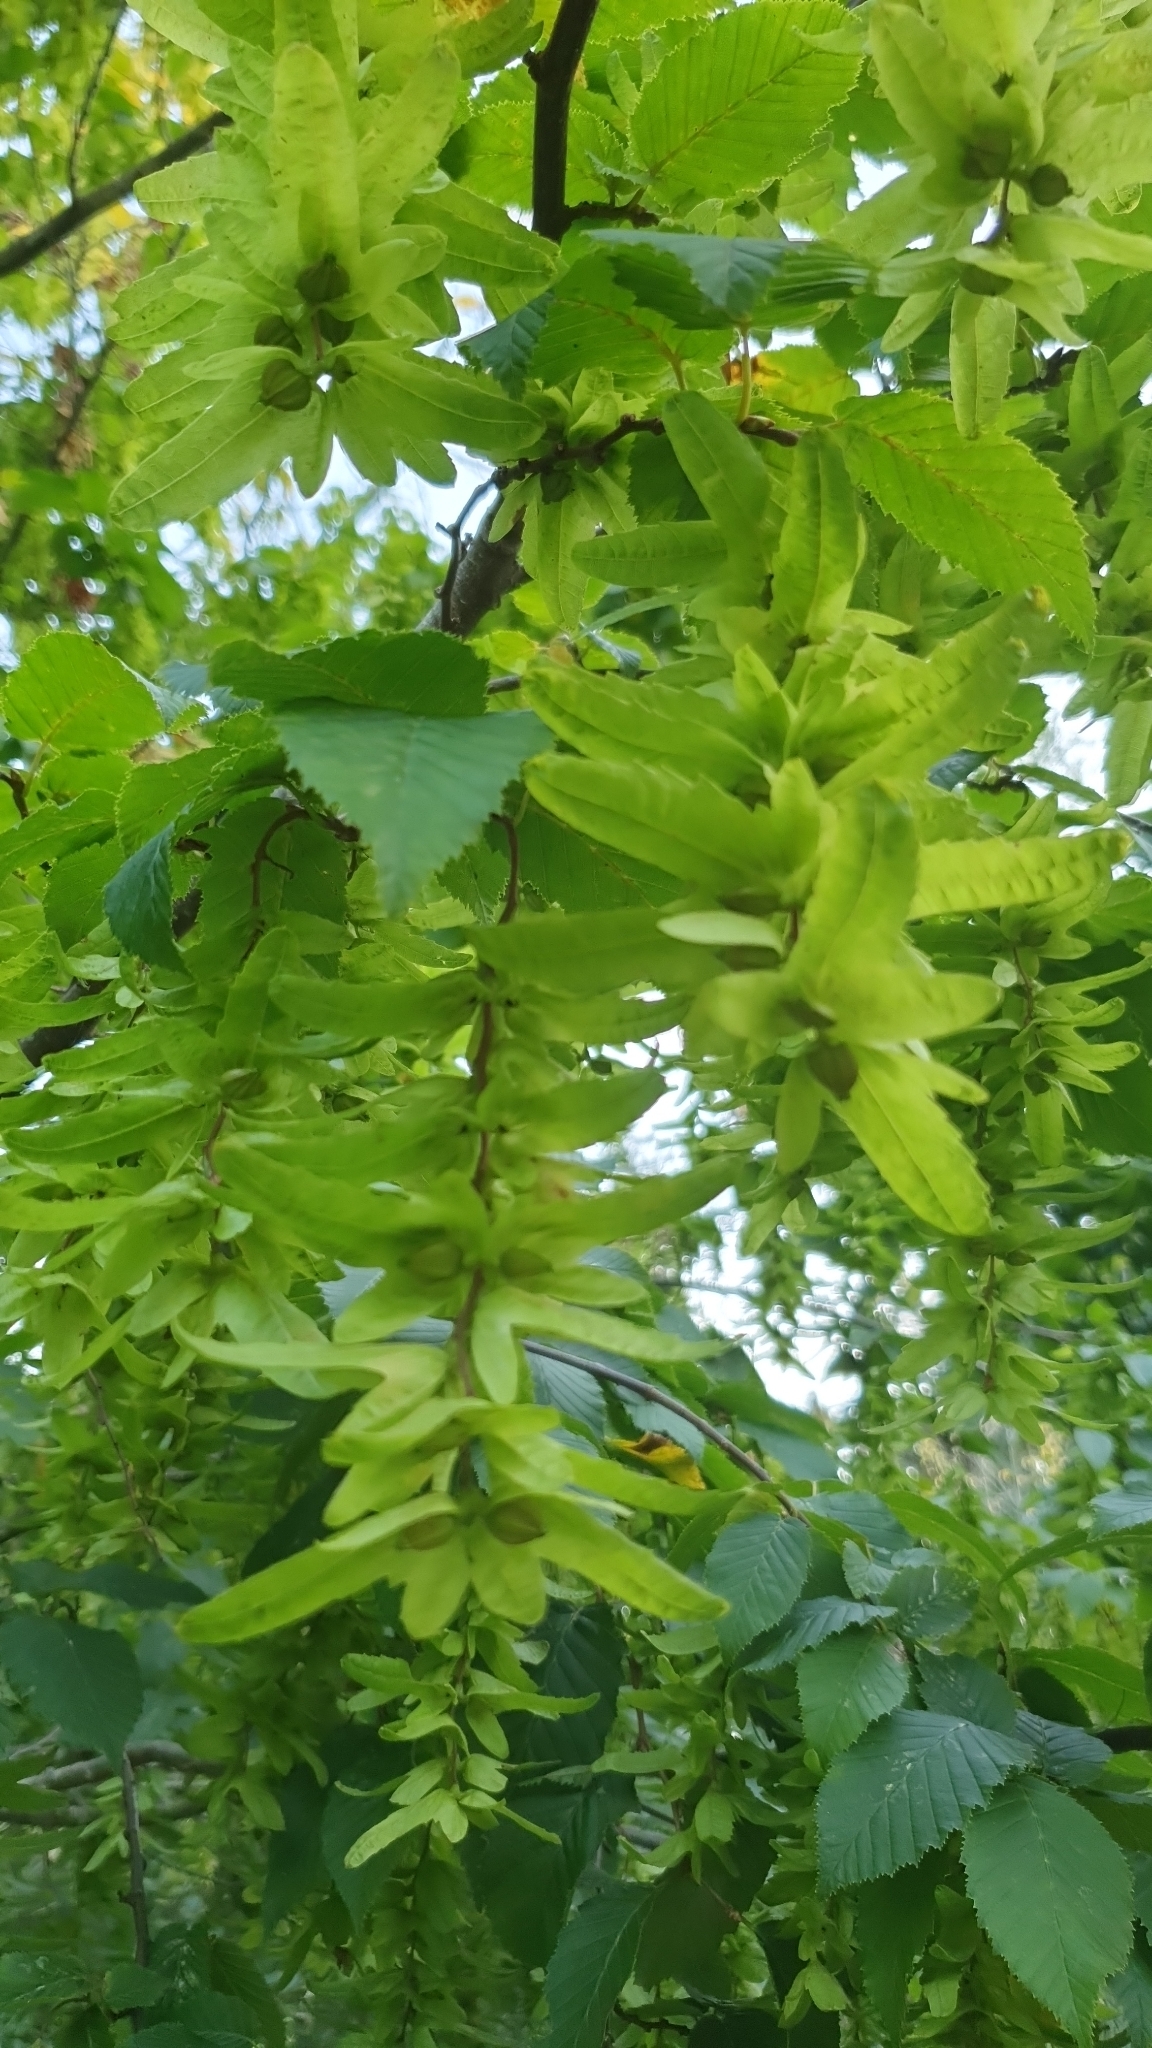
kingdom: Plantae
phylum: Tracheophyta
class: Magnoliopsida
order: Fagales
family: Betulaceae
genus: Carpinus
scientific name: Carpinus betulus
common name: Hornbeam
